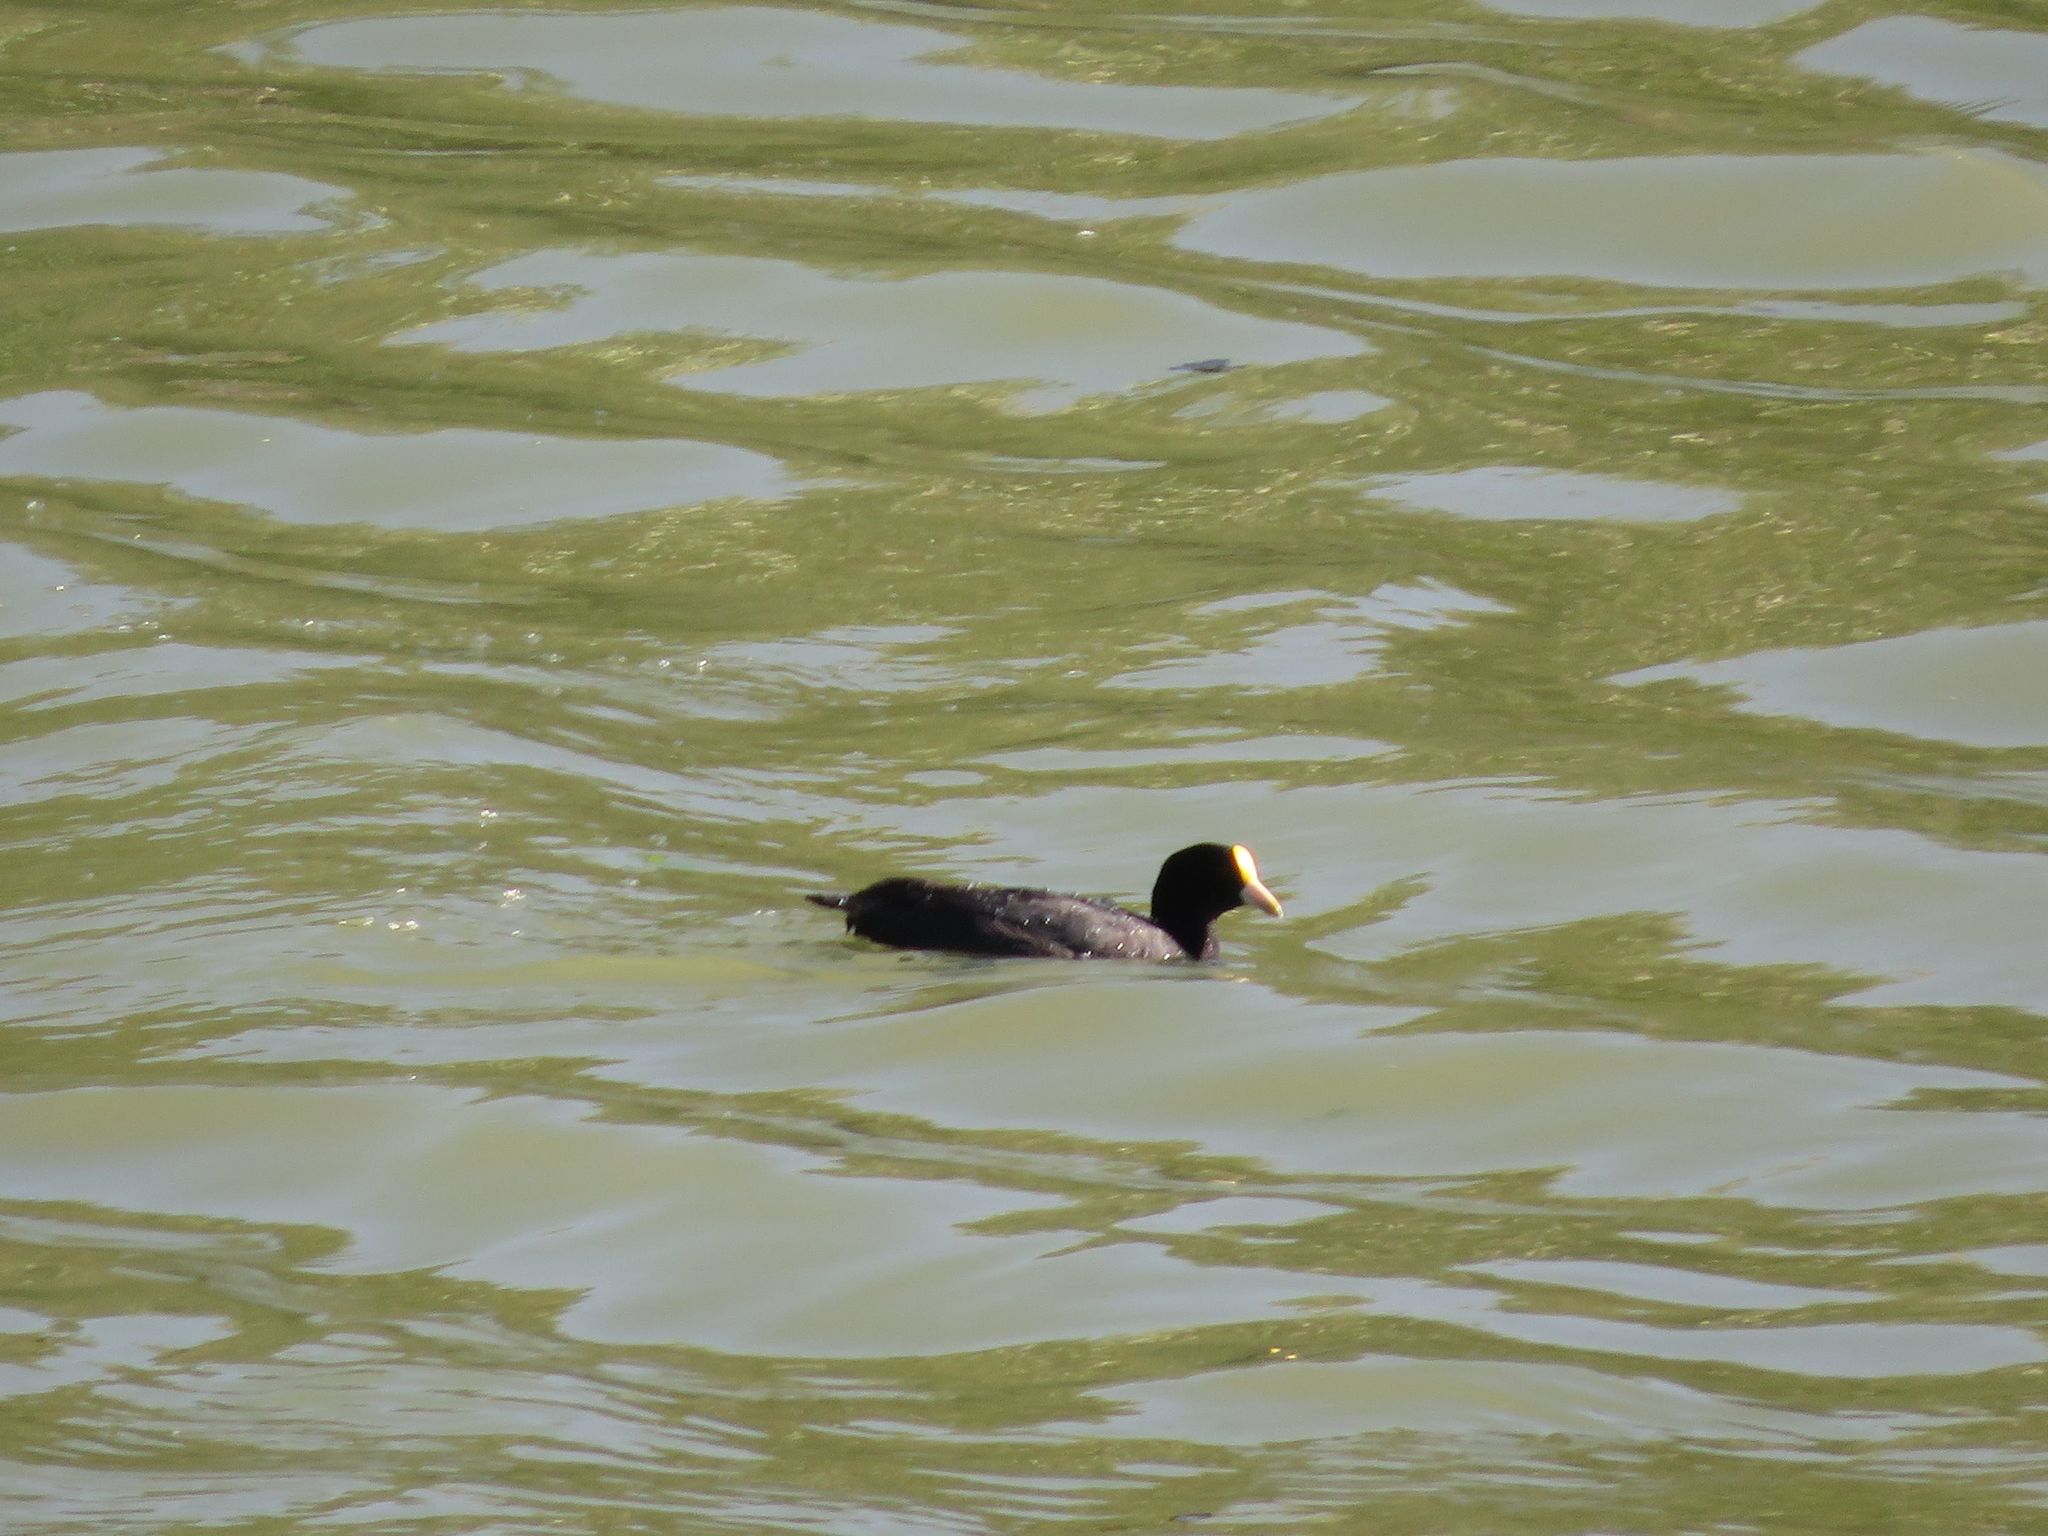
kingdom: Animalia
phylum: Chordata
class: Aves
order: Gruiformes
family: Rallidae
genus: Fulica
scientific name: Fulica leucoptera
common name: White-winged coot
